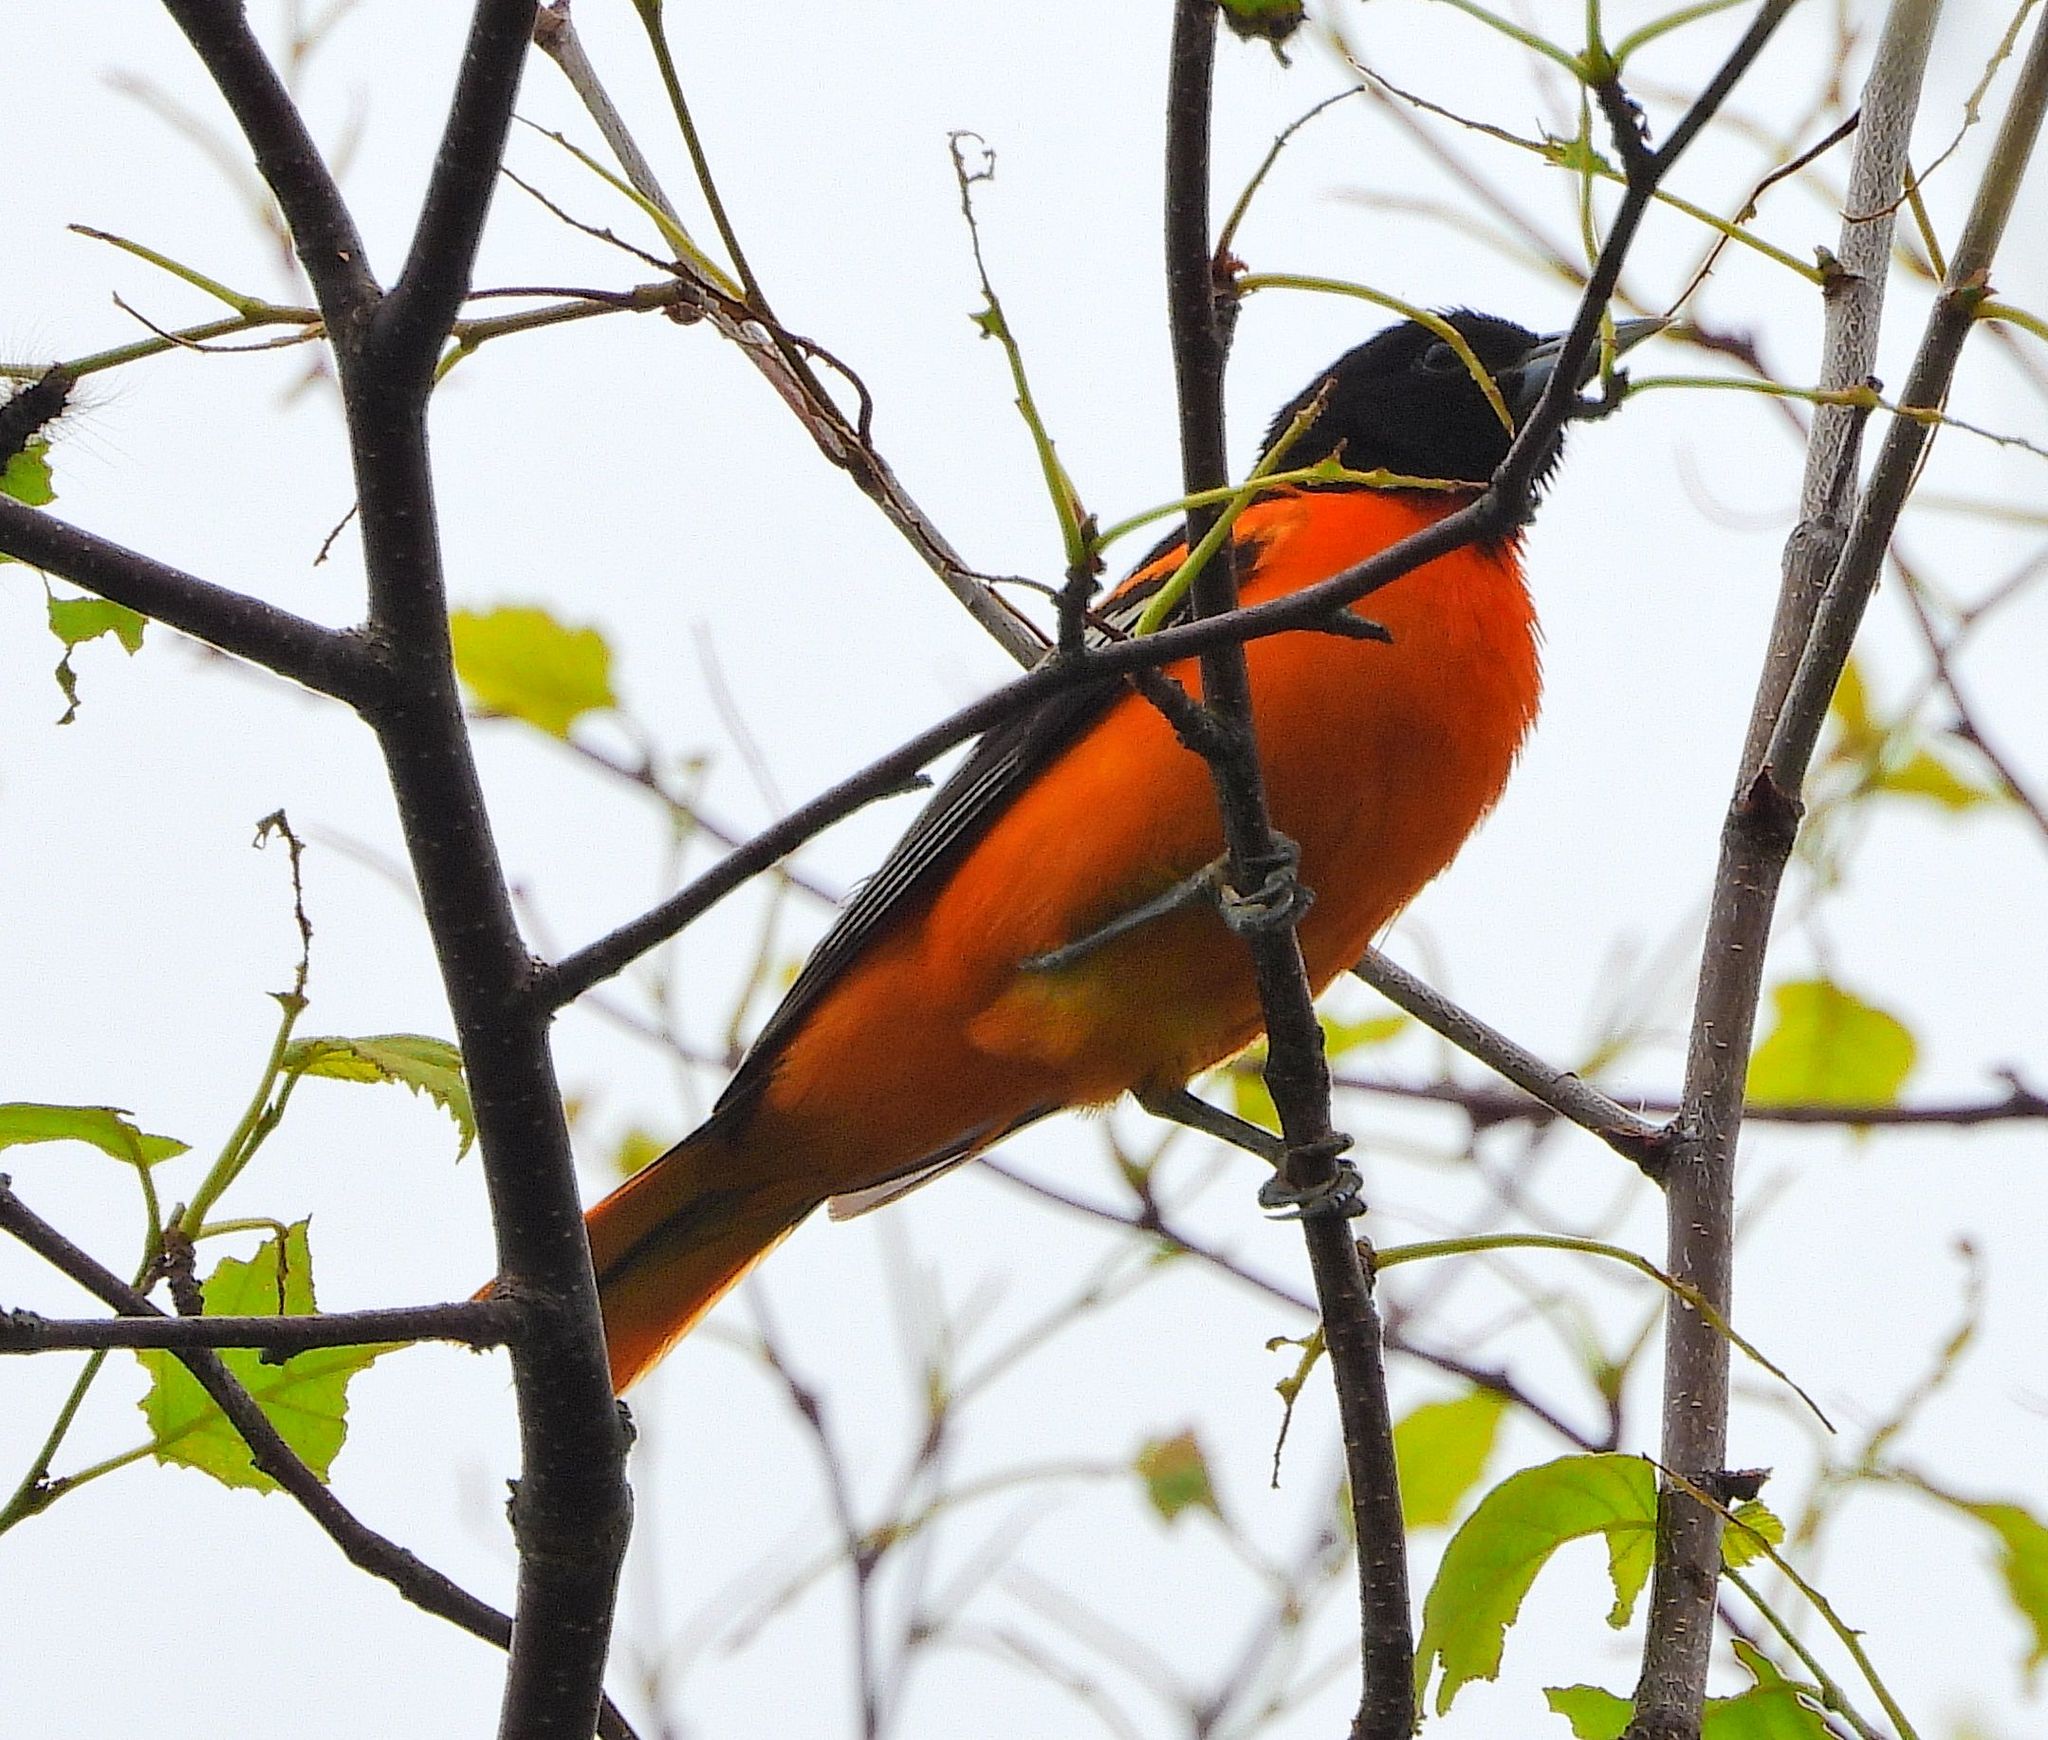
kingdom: Animalia
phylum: Chordata
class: Aves
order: Passeriformes
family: Icteridae
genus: Icterus
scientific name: Icterus galbula
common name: Baltimore oriole
